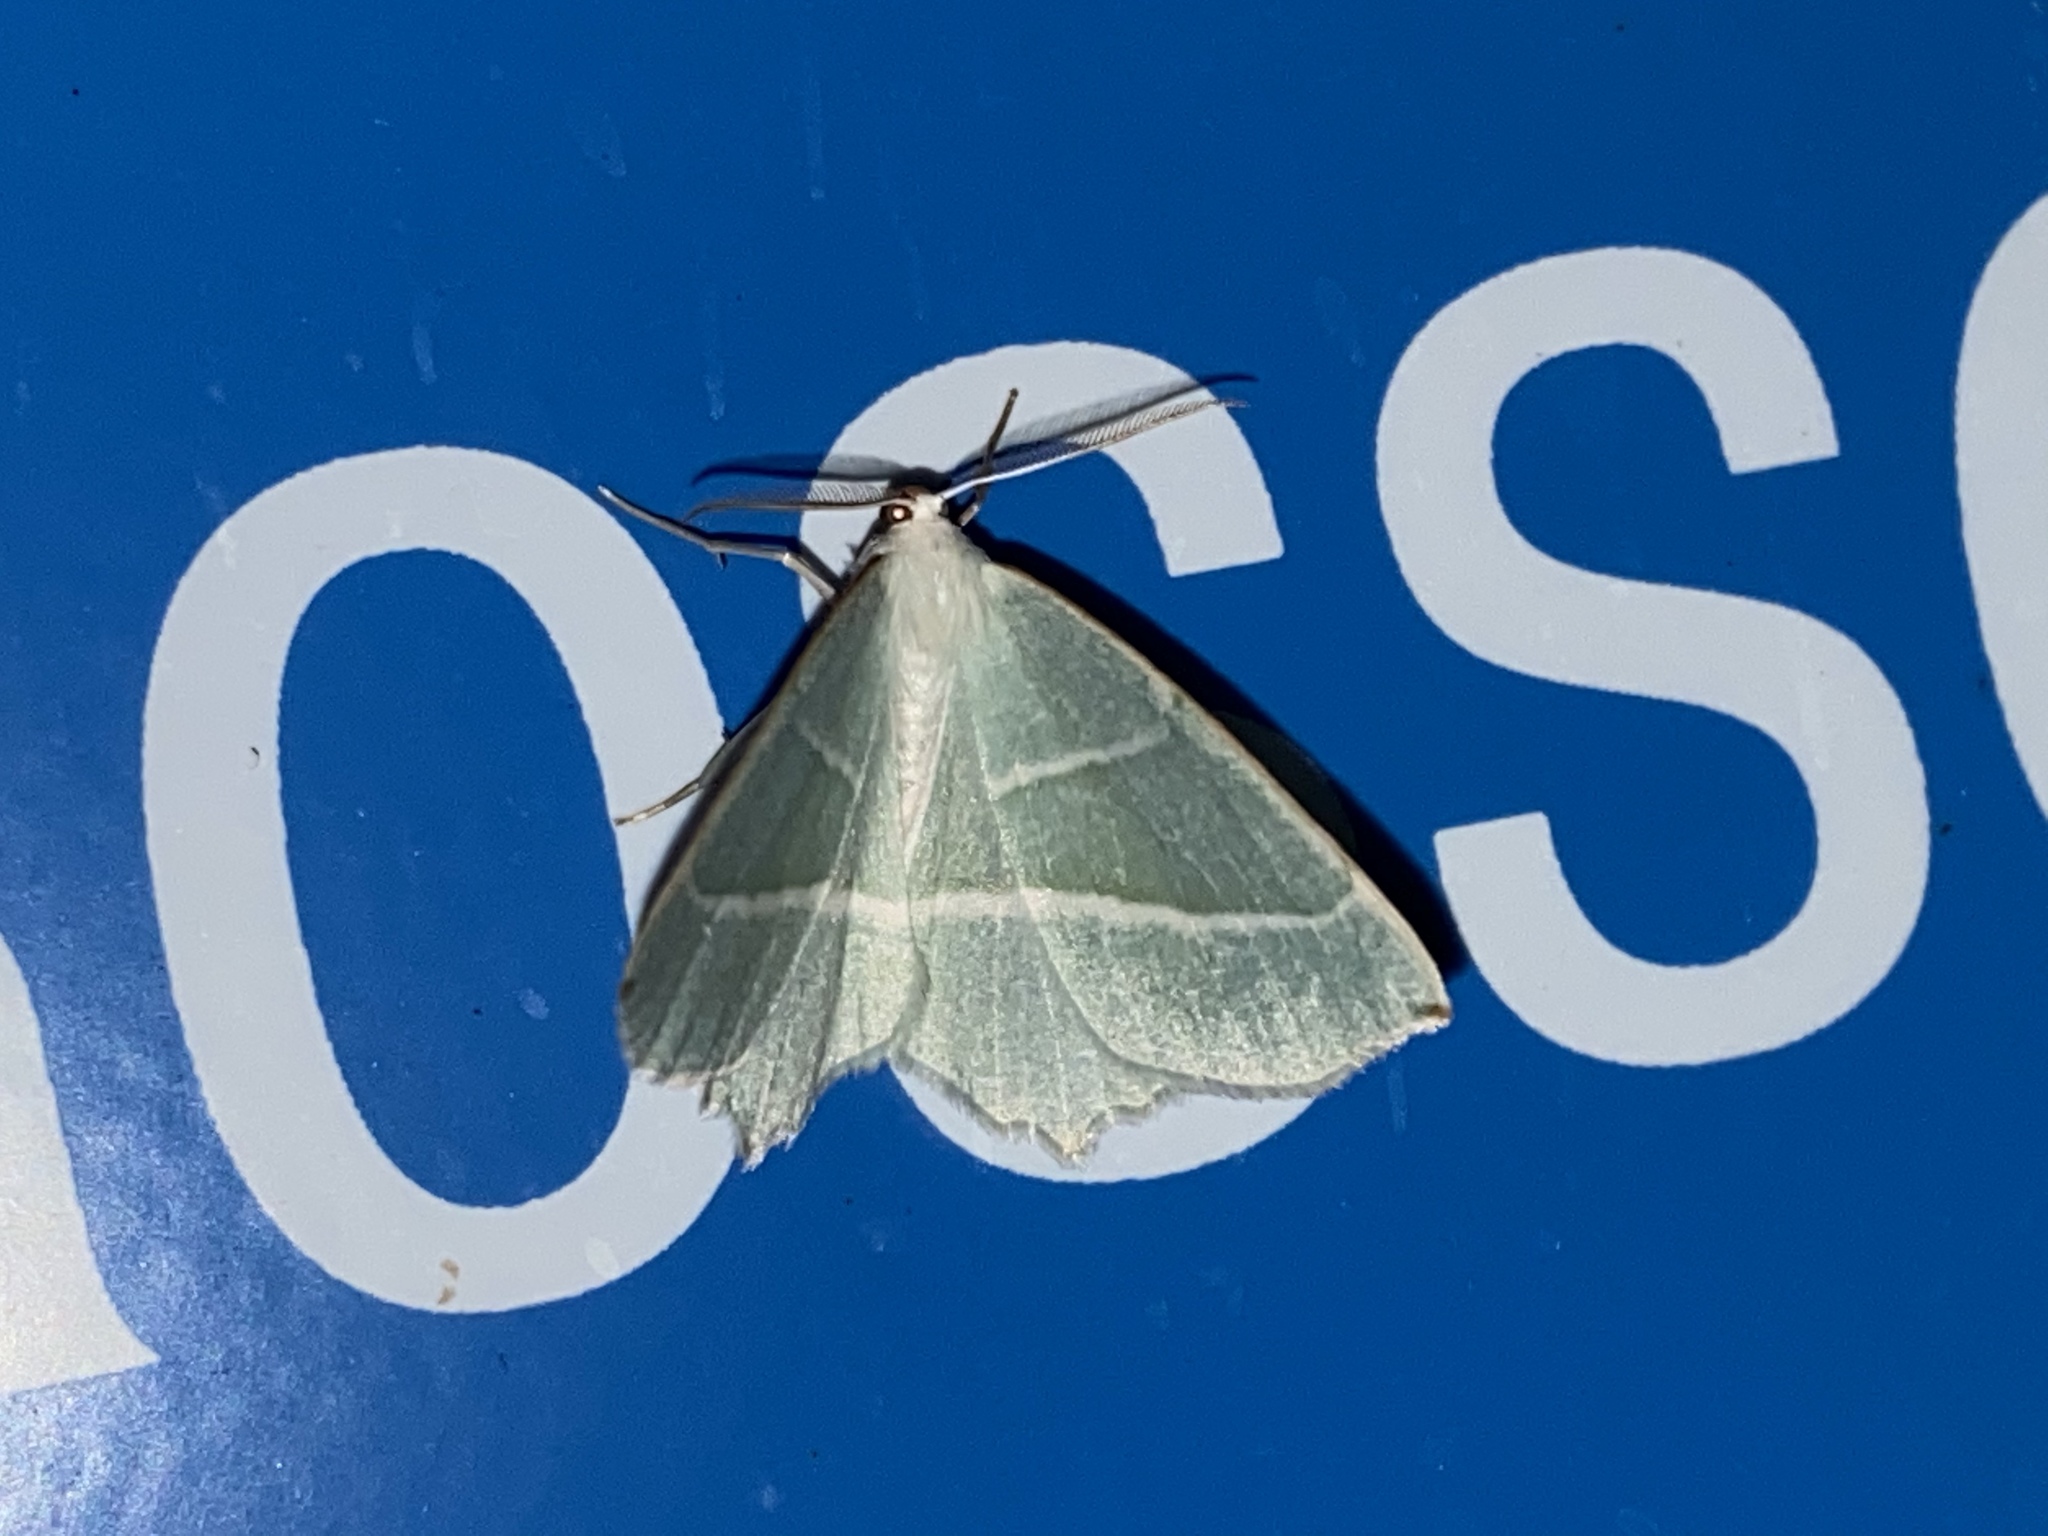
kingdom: Animalia
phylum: Arthropoda
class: Insecta
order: Lepidoptera
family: Geometridae
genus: Campaea
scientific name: Campaea margaritaria
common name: Light emerald
